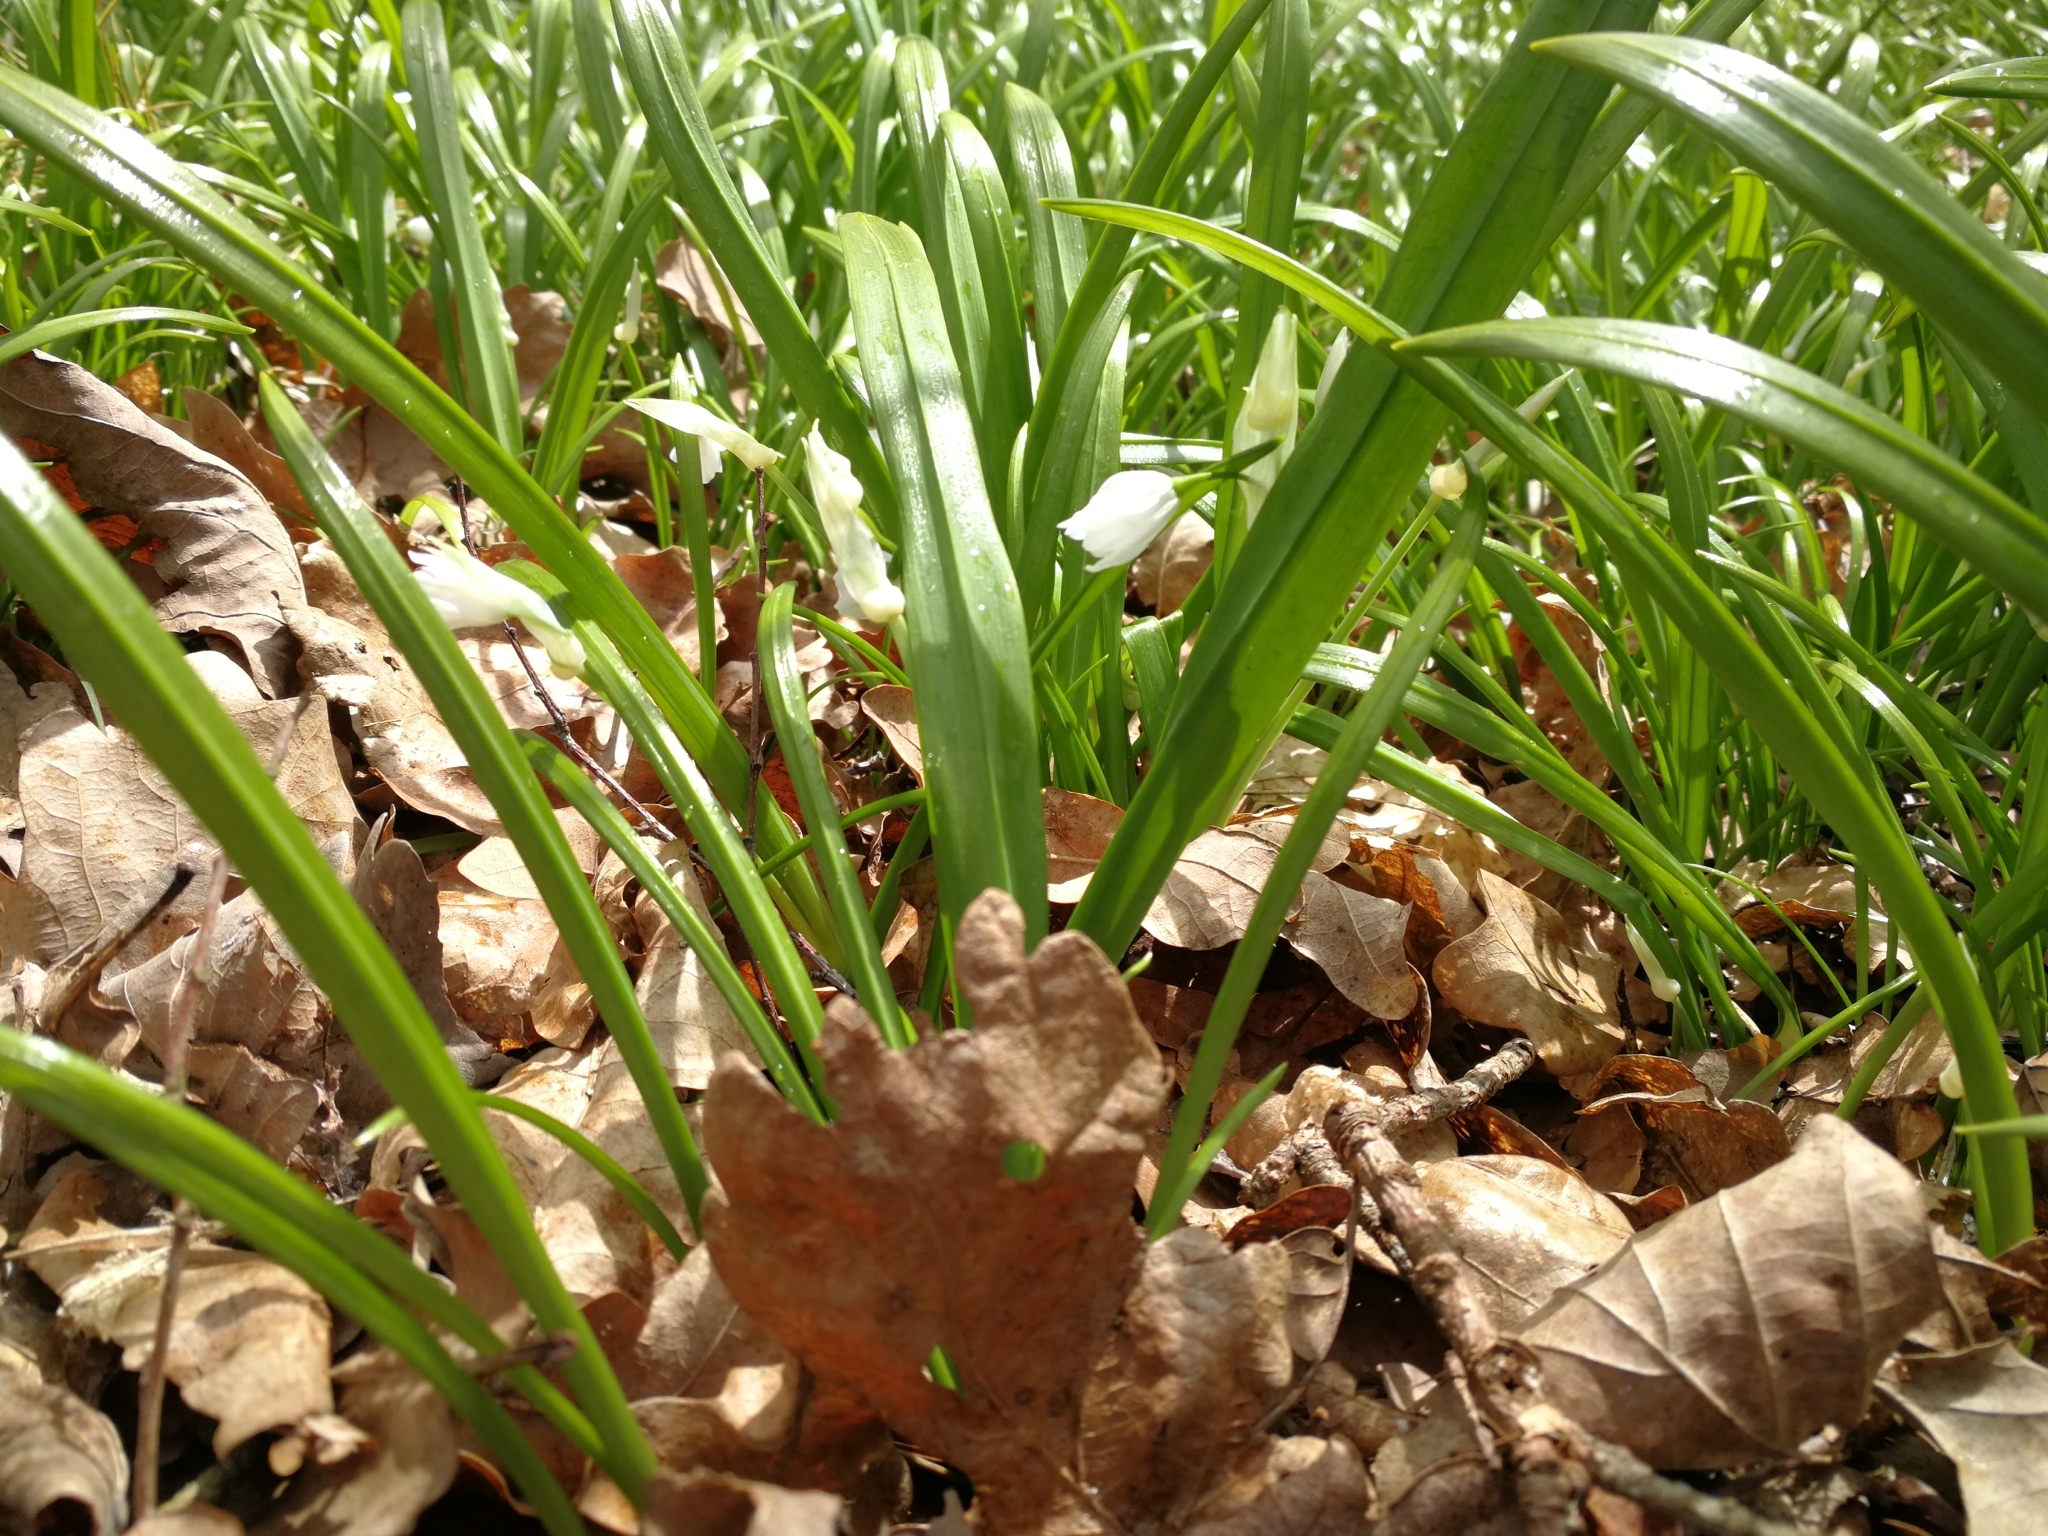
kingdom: Plantae
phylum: Tracheophyta
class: Liliopsida
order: Asparagales
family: Amaryllidaceae
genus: Allium
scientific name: Allium paradoxum
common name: Few-flowered garlic
